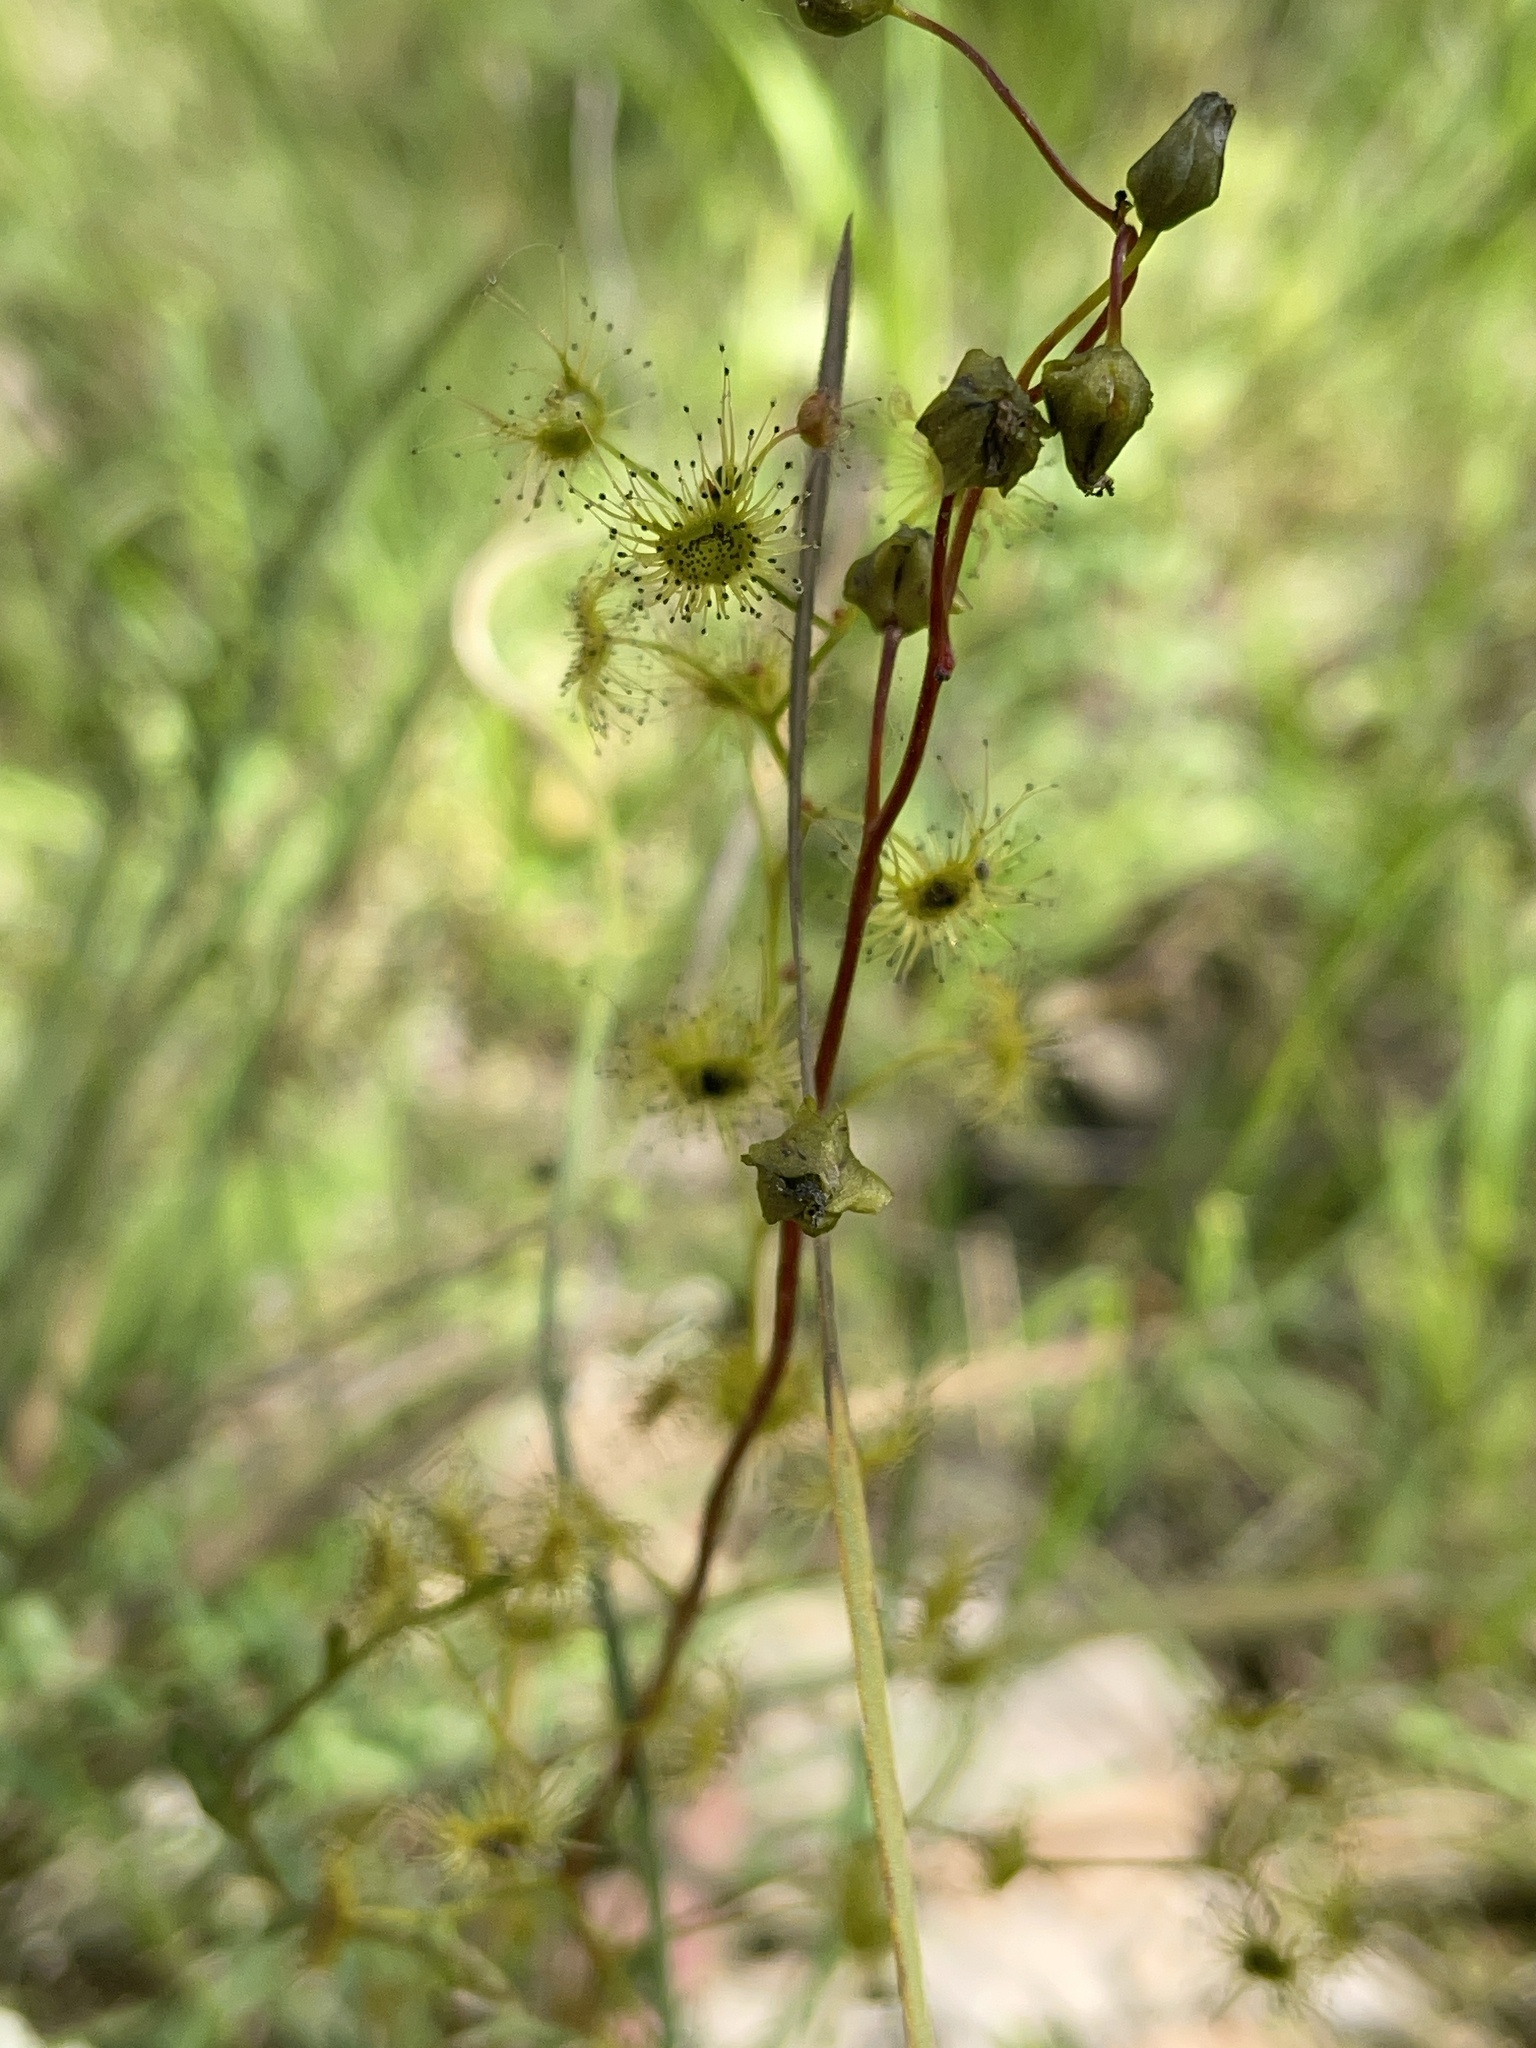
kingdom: Plantae
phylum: Tracheophyta
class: Magnoliopsida
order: Caryophyllales
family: Droseraceae
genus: Drosera
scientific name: Drosera peltata
